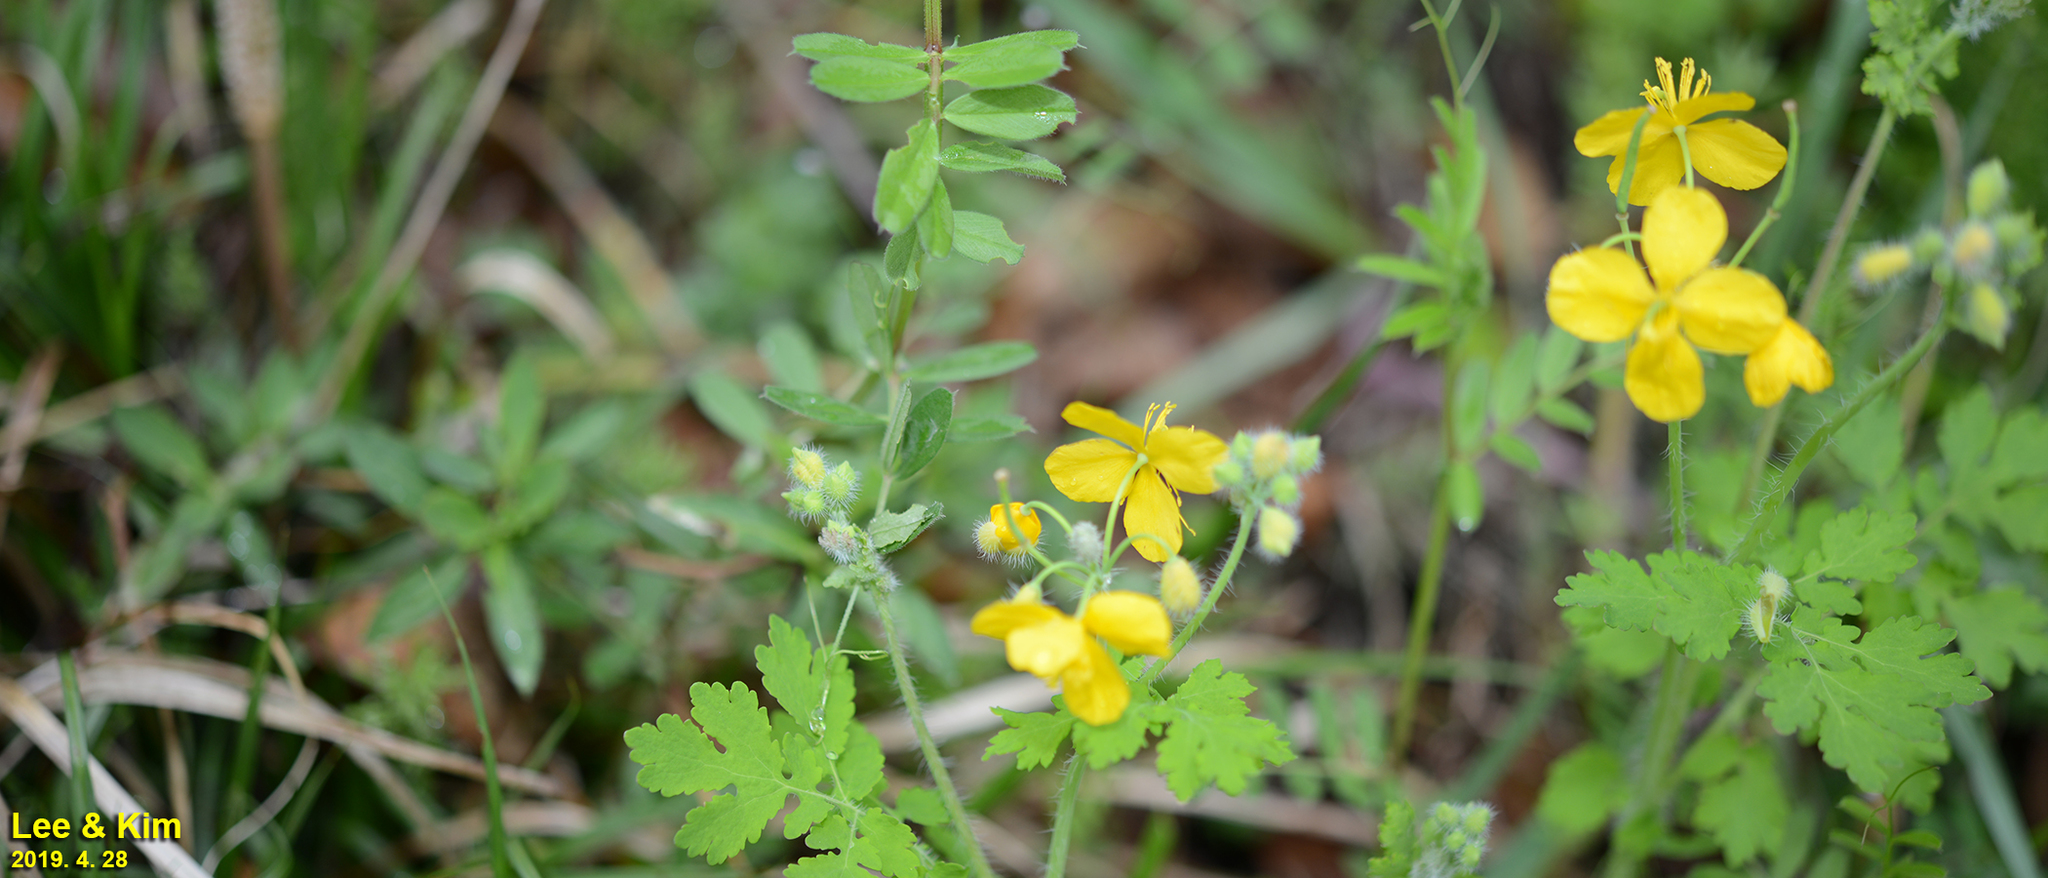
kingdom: Plantae
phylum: Tracheophyta
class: Magnoliopsida
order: Ranunculales
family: Papaveraceae
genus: Chelidonium
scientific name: Chelidonium majus
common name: Greater celandine
